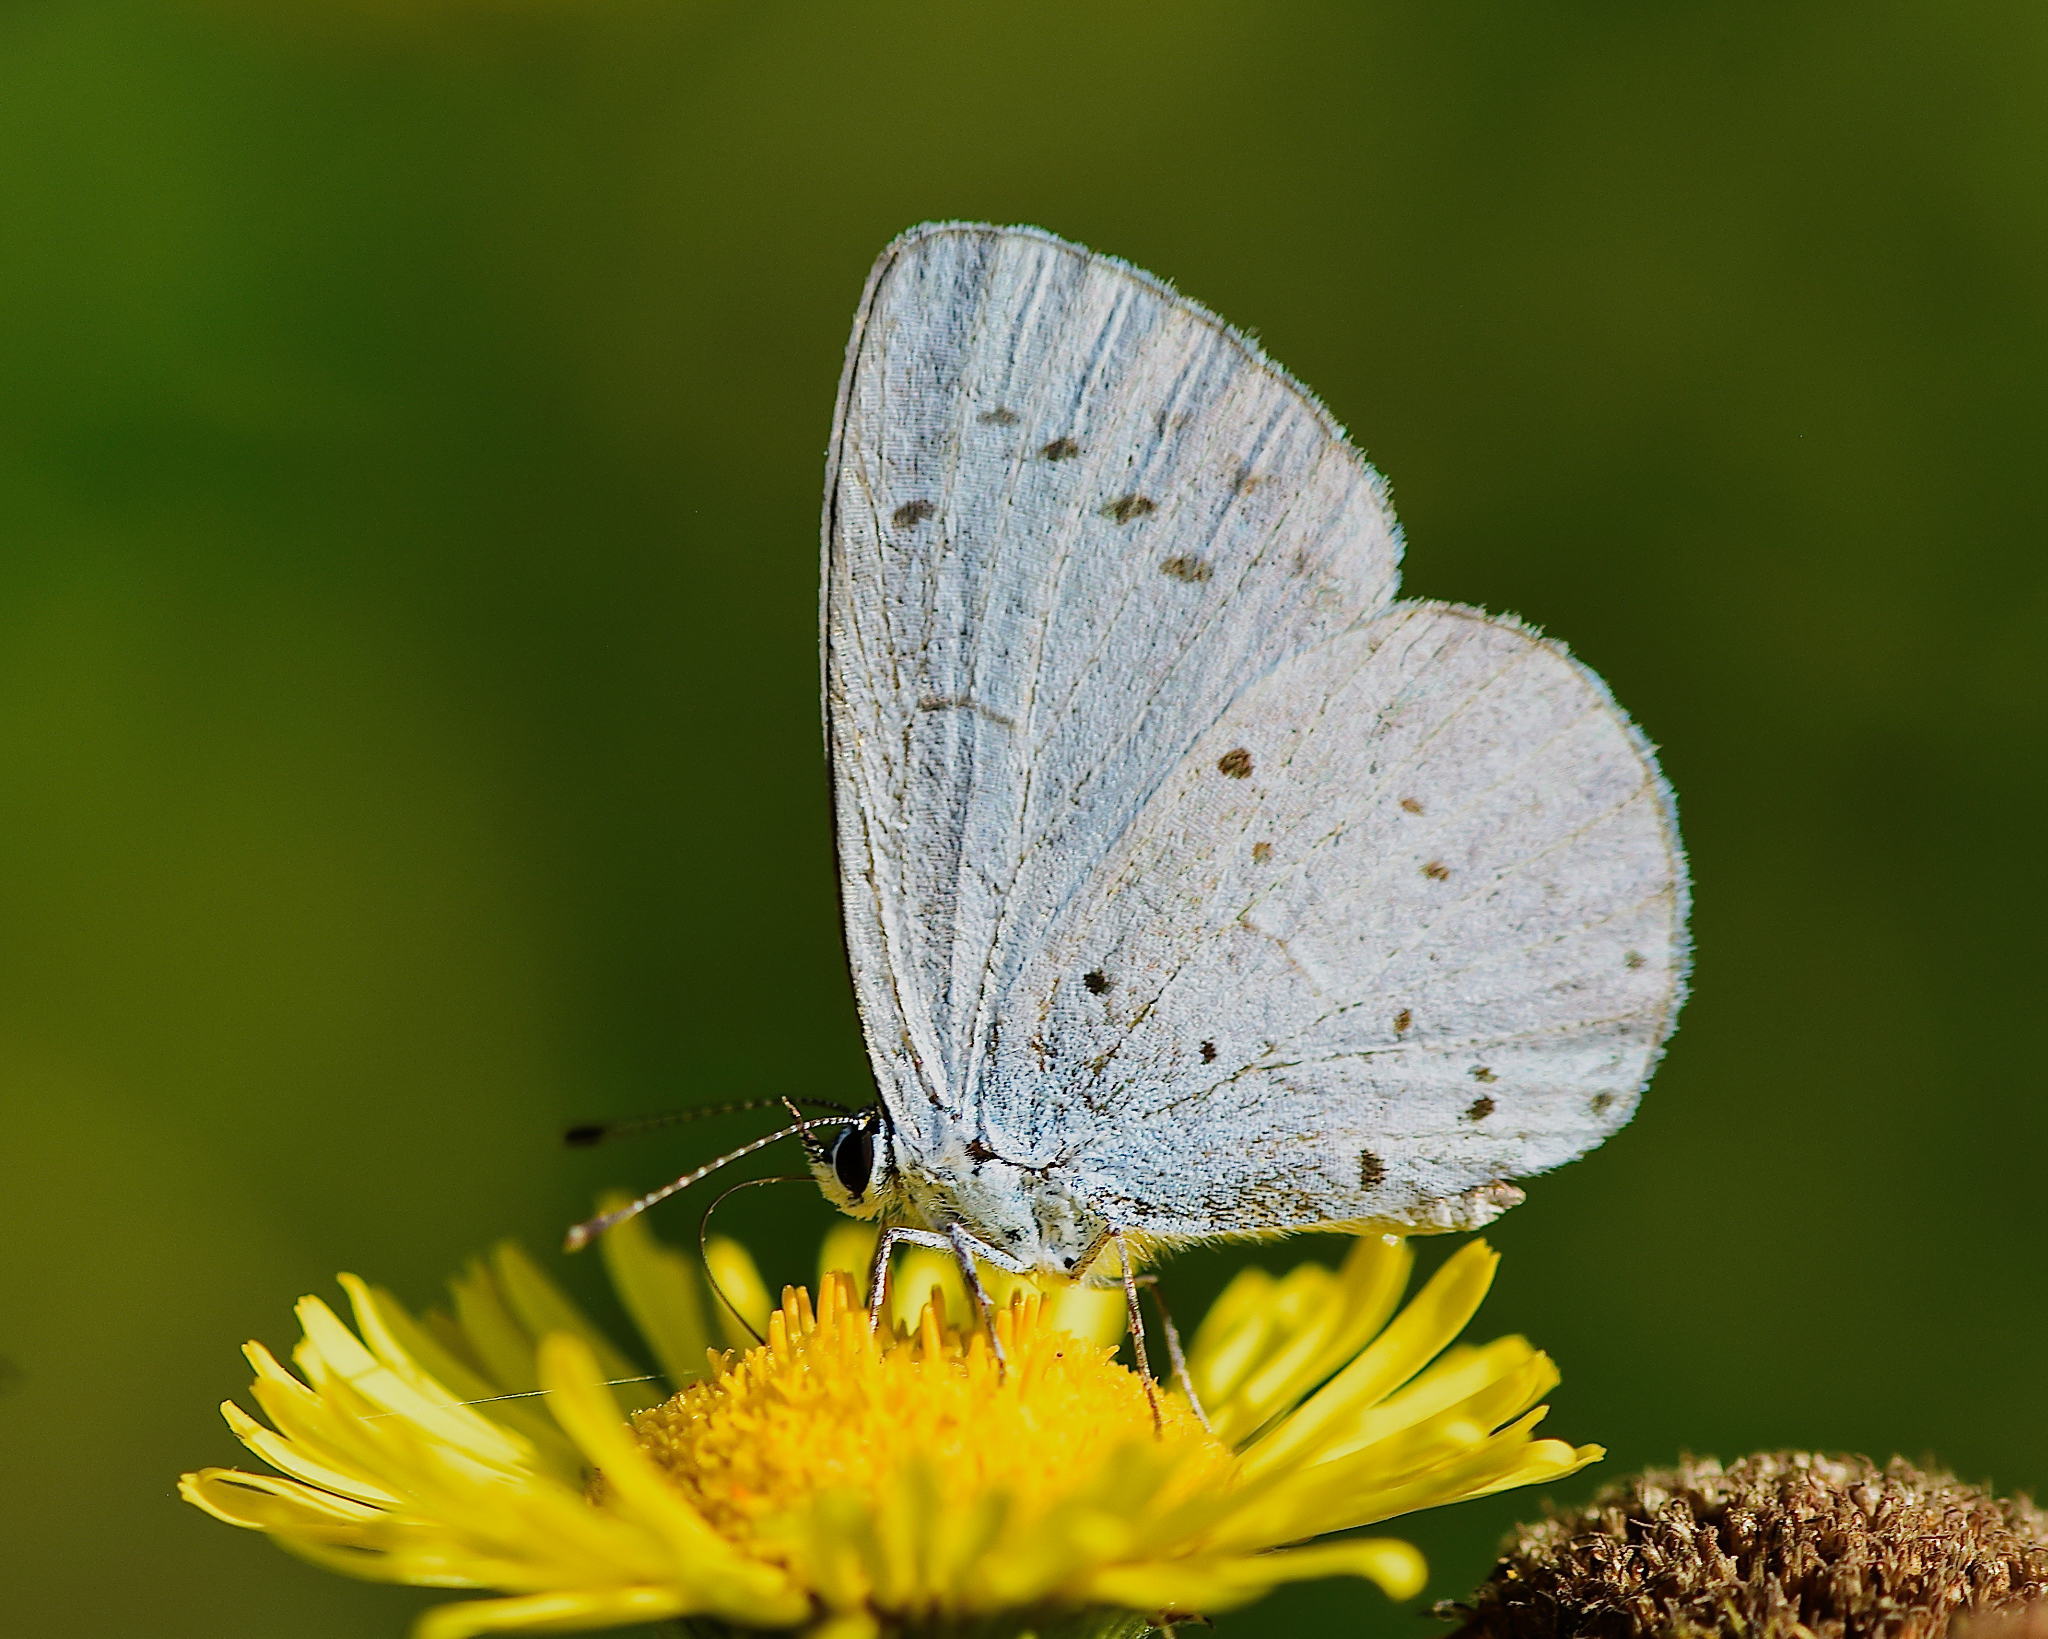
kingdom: Animalia
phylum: Arthropoda
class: Insecta
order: Lepidoptera
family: Lycaenidae
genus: Celastrina
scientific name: Celastrina argiolus
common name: Holly blue
